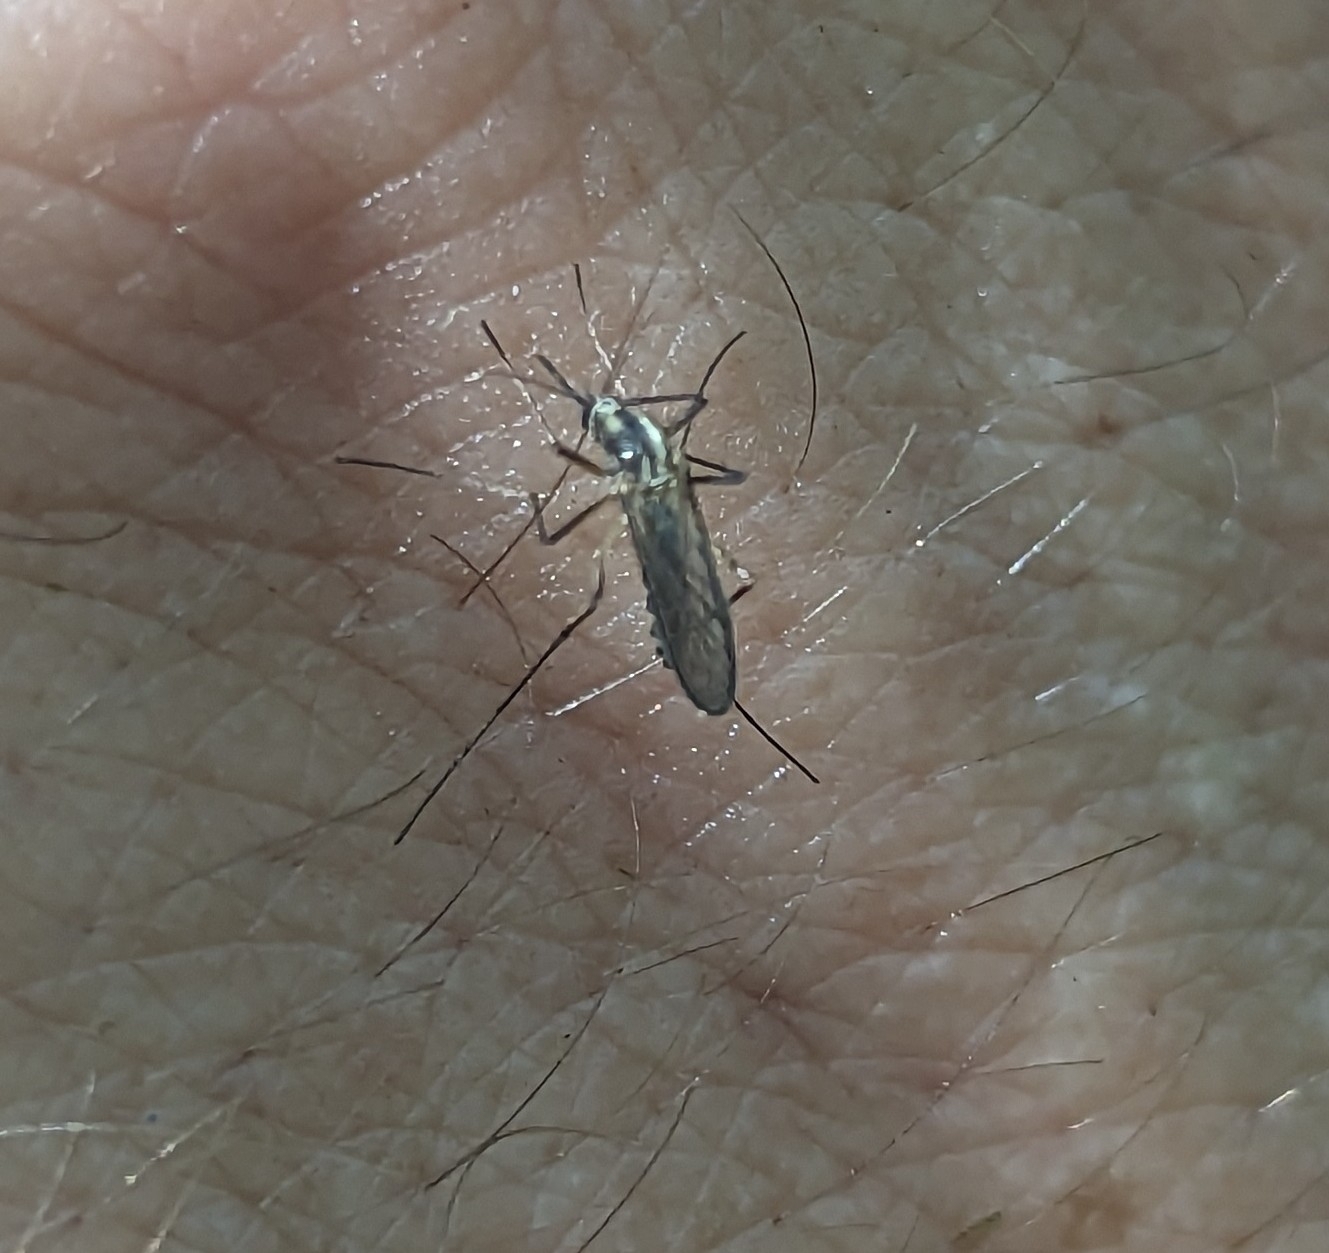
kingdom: Animalia
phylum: Arthropoda
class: Insecta
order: Diptera
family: Culicidae
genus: Aedes
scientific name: Aedes trivittatus
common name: Plains floodwater mosquito
